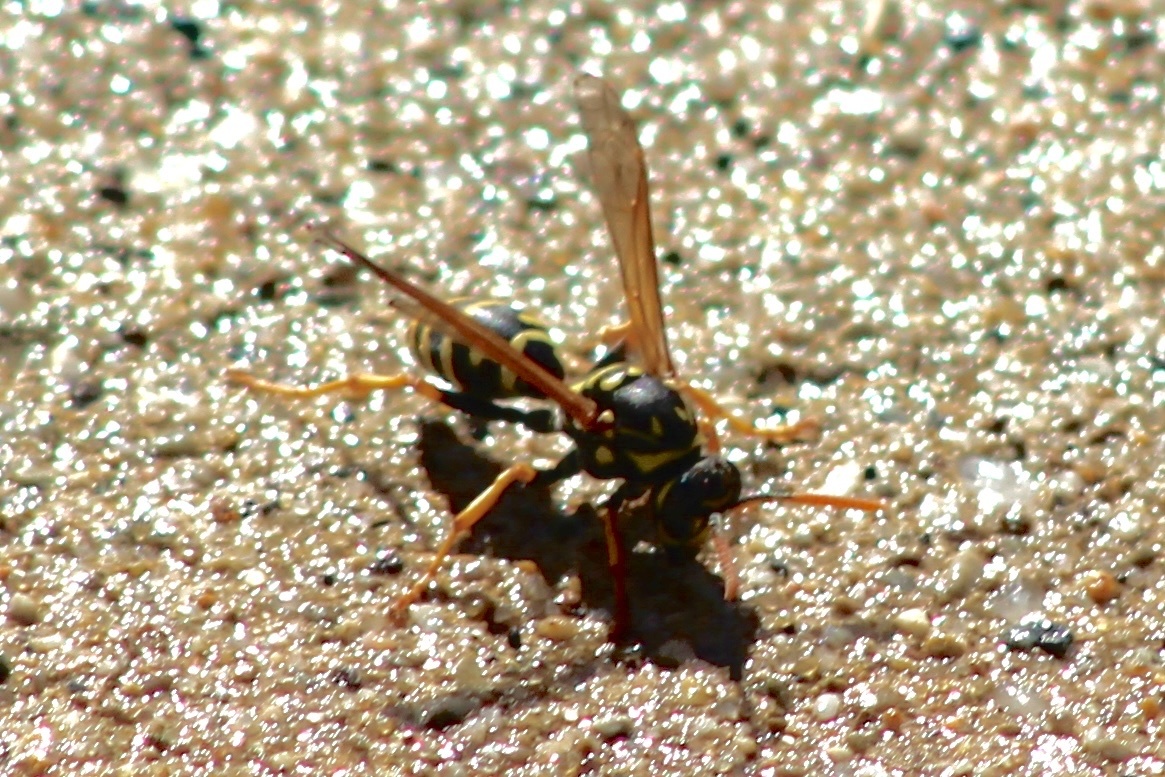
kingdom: Animalia
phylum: Arthropoda
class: Insecta
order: Hymenoptera
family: Eumenidae
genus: Polistes
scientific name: Polistes dominula
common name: Paper wasp
